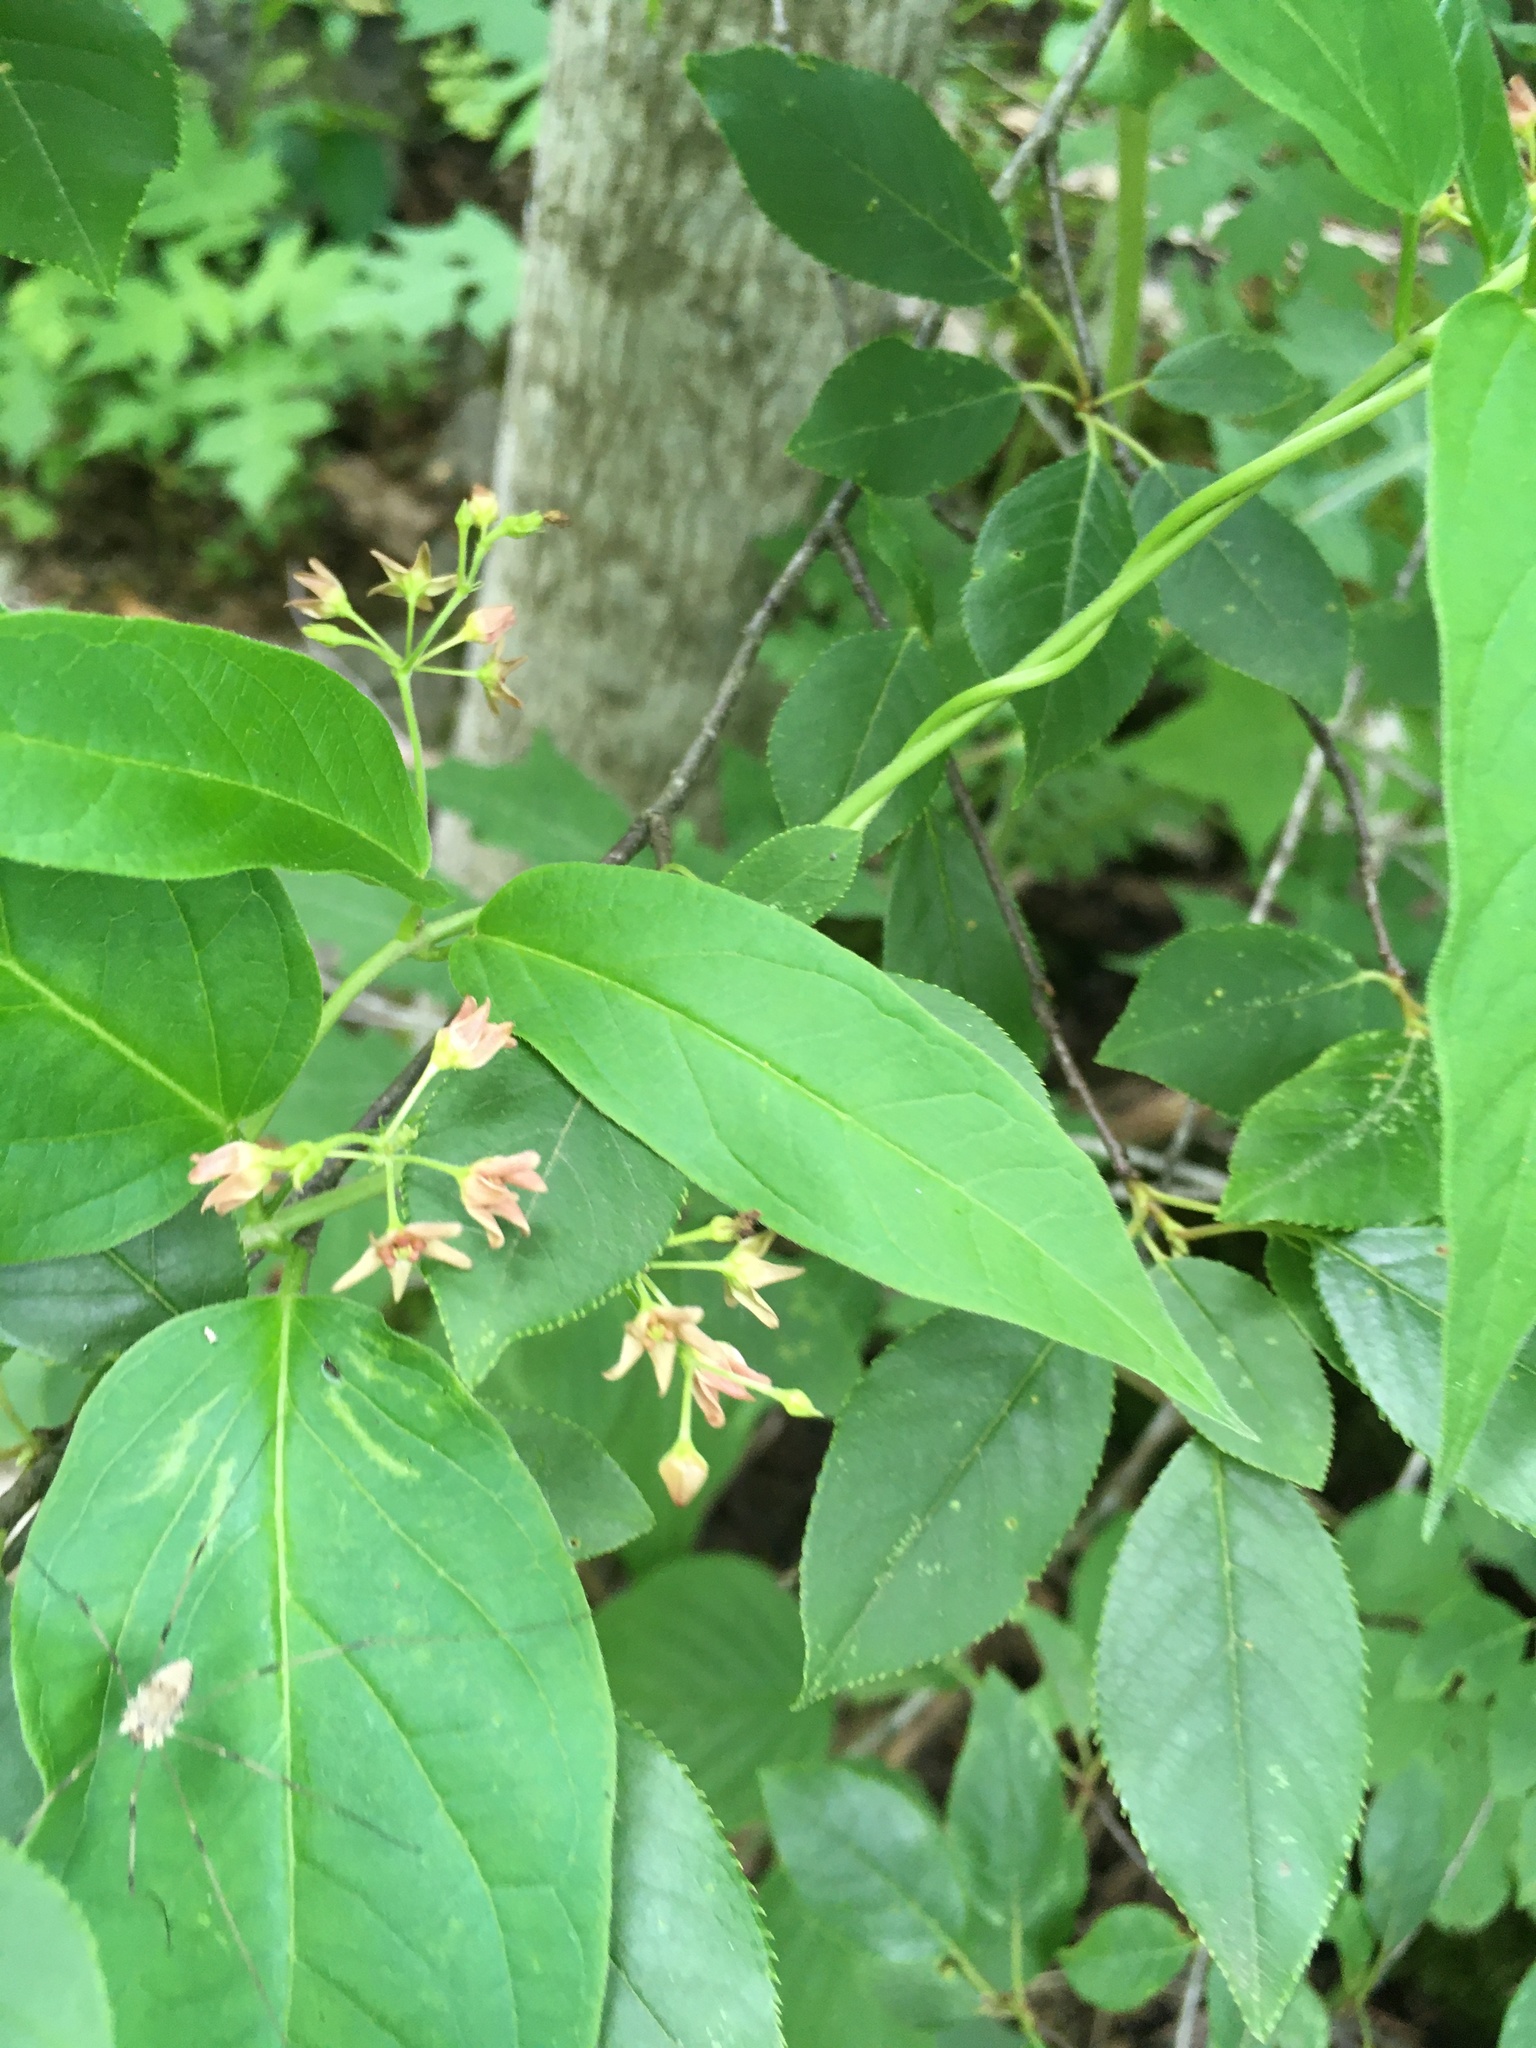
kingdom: Plantae
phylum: Tracheophyta
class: Magnoliopsida
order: Gentianales
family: Apocynaceae
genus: Vincetoxicum
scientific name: Vincetoxicum rossicum
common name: Dog-strangling vine
